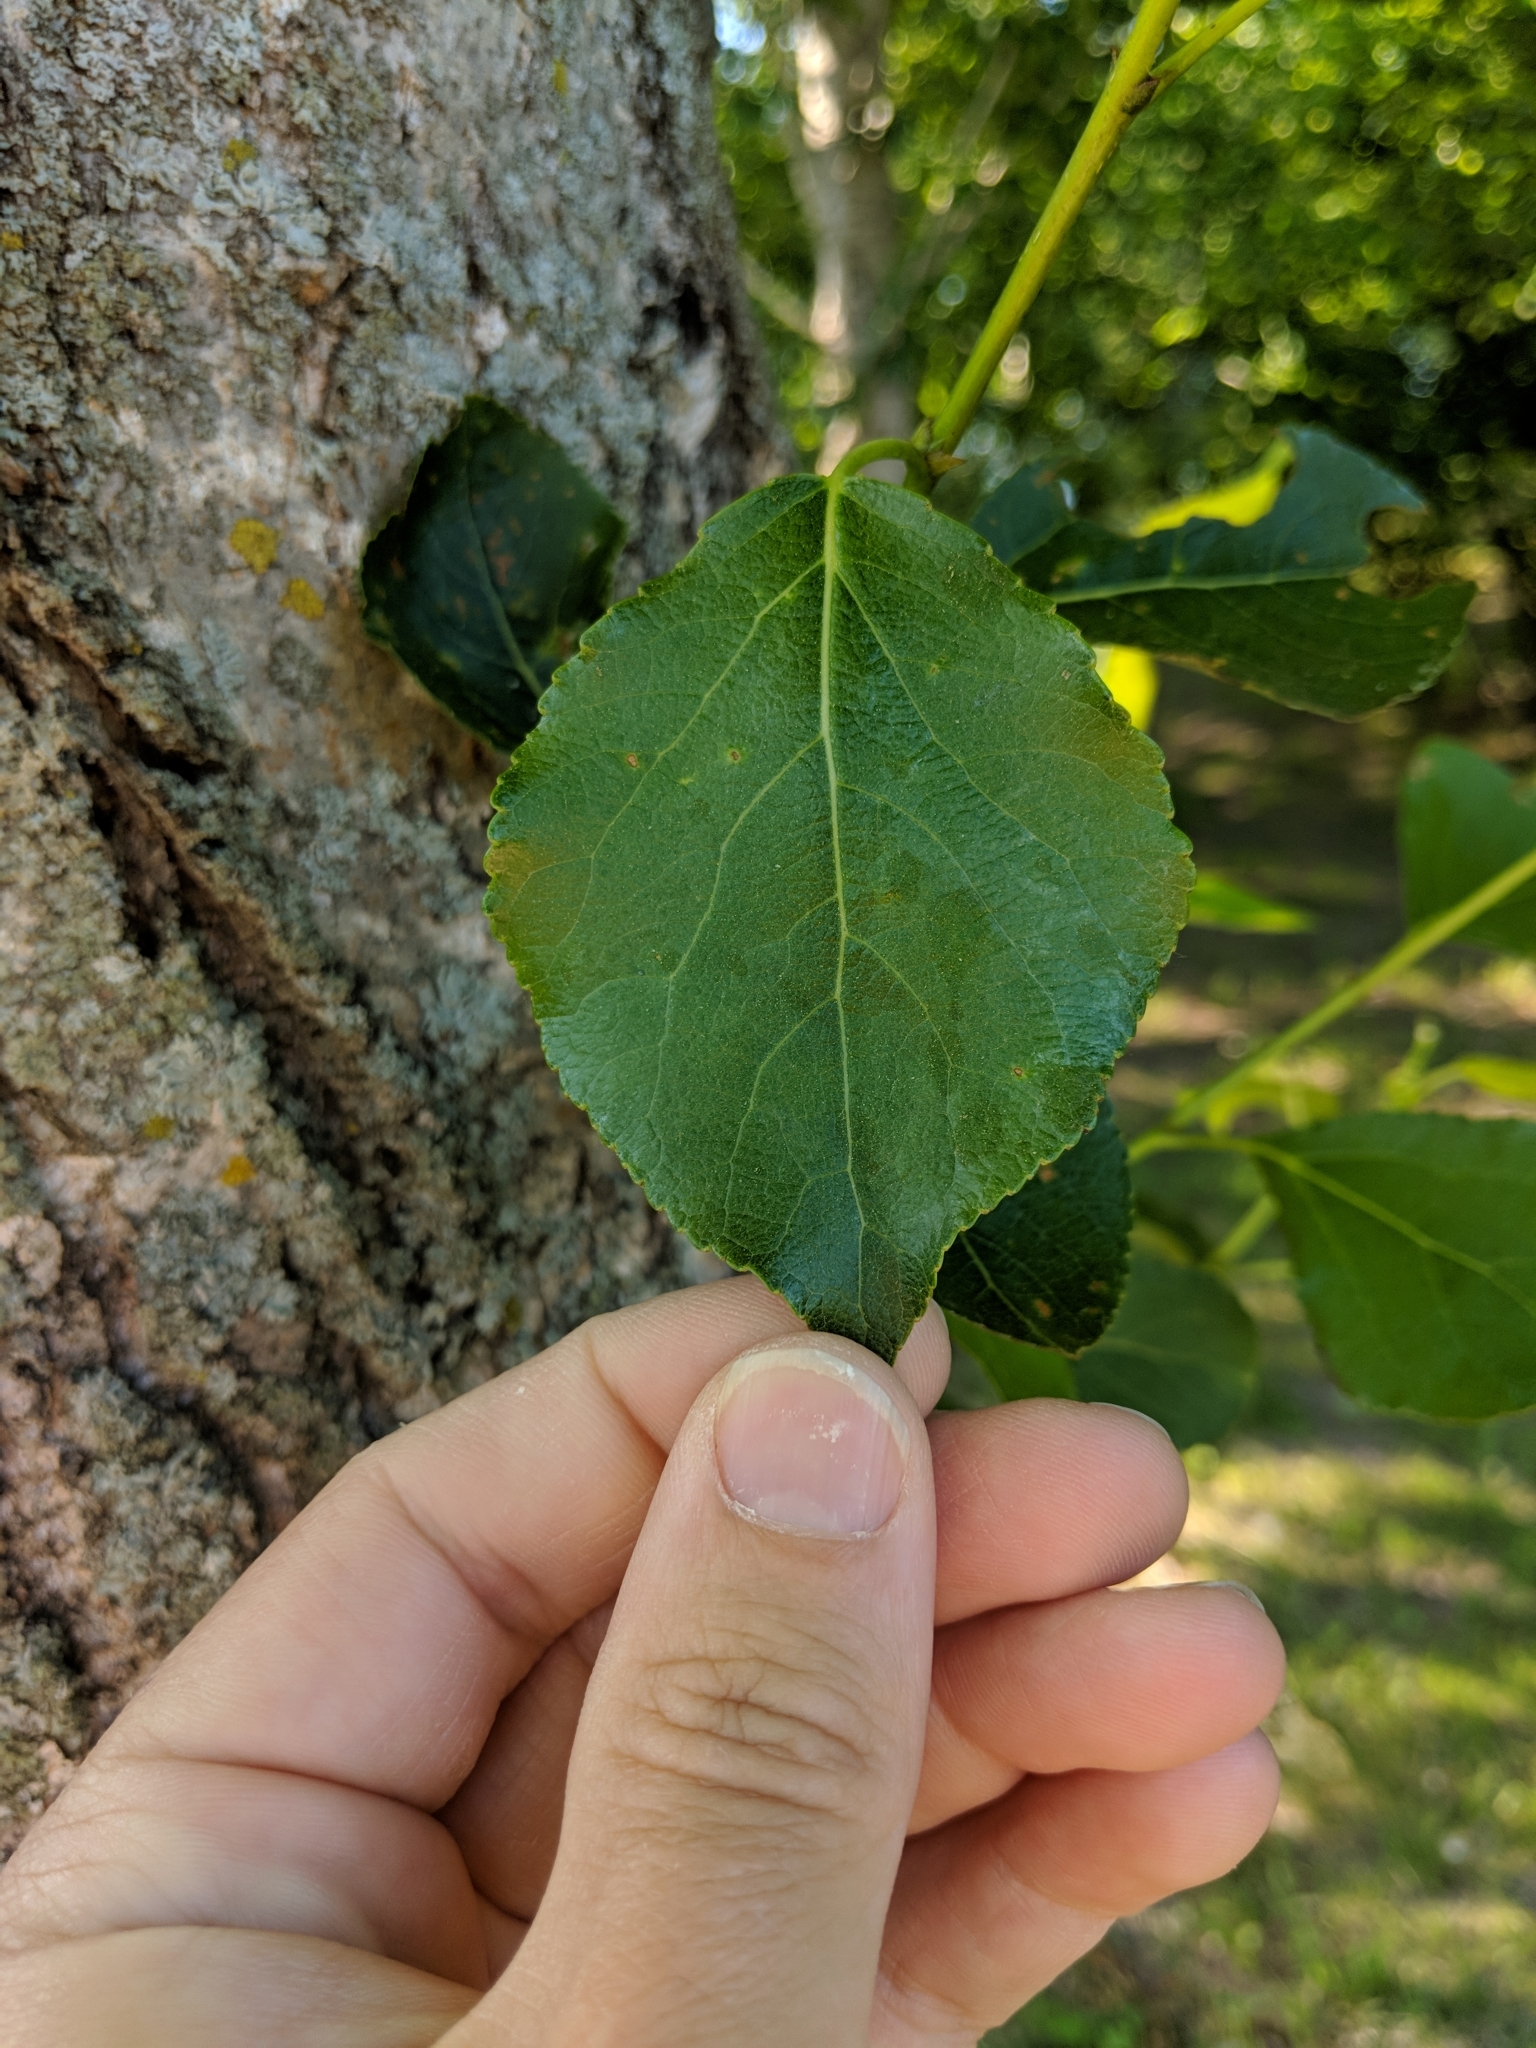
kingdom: Plantae
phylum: Tracheophyta
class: Magnoliopsida
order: Malpighiales
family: Salicaceae
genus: Populus
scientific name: Populus balsamifera
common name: Balsam poplar
